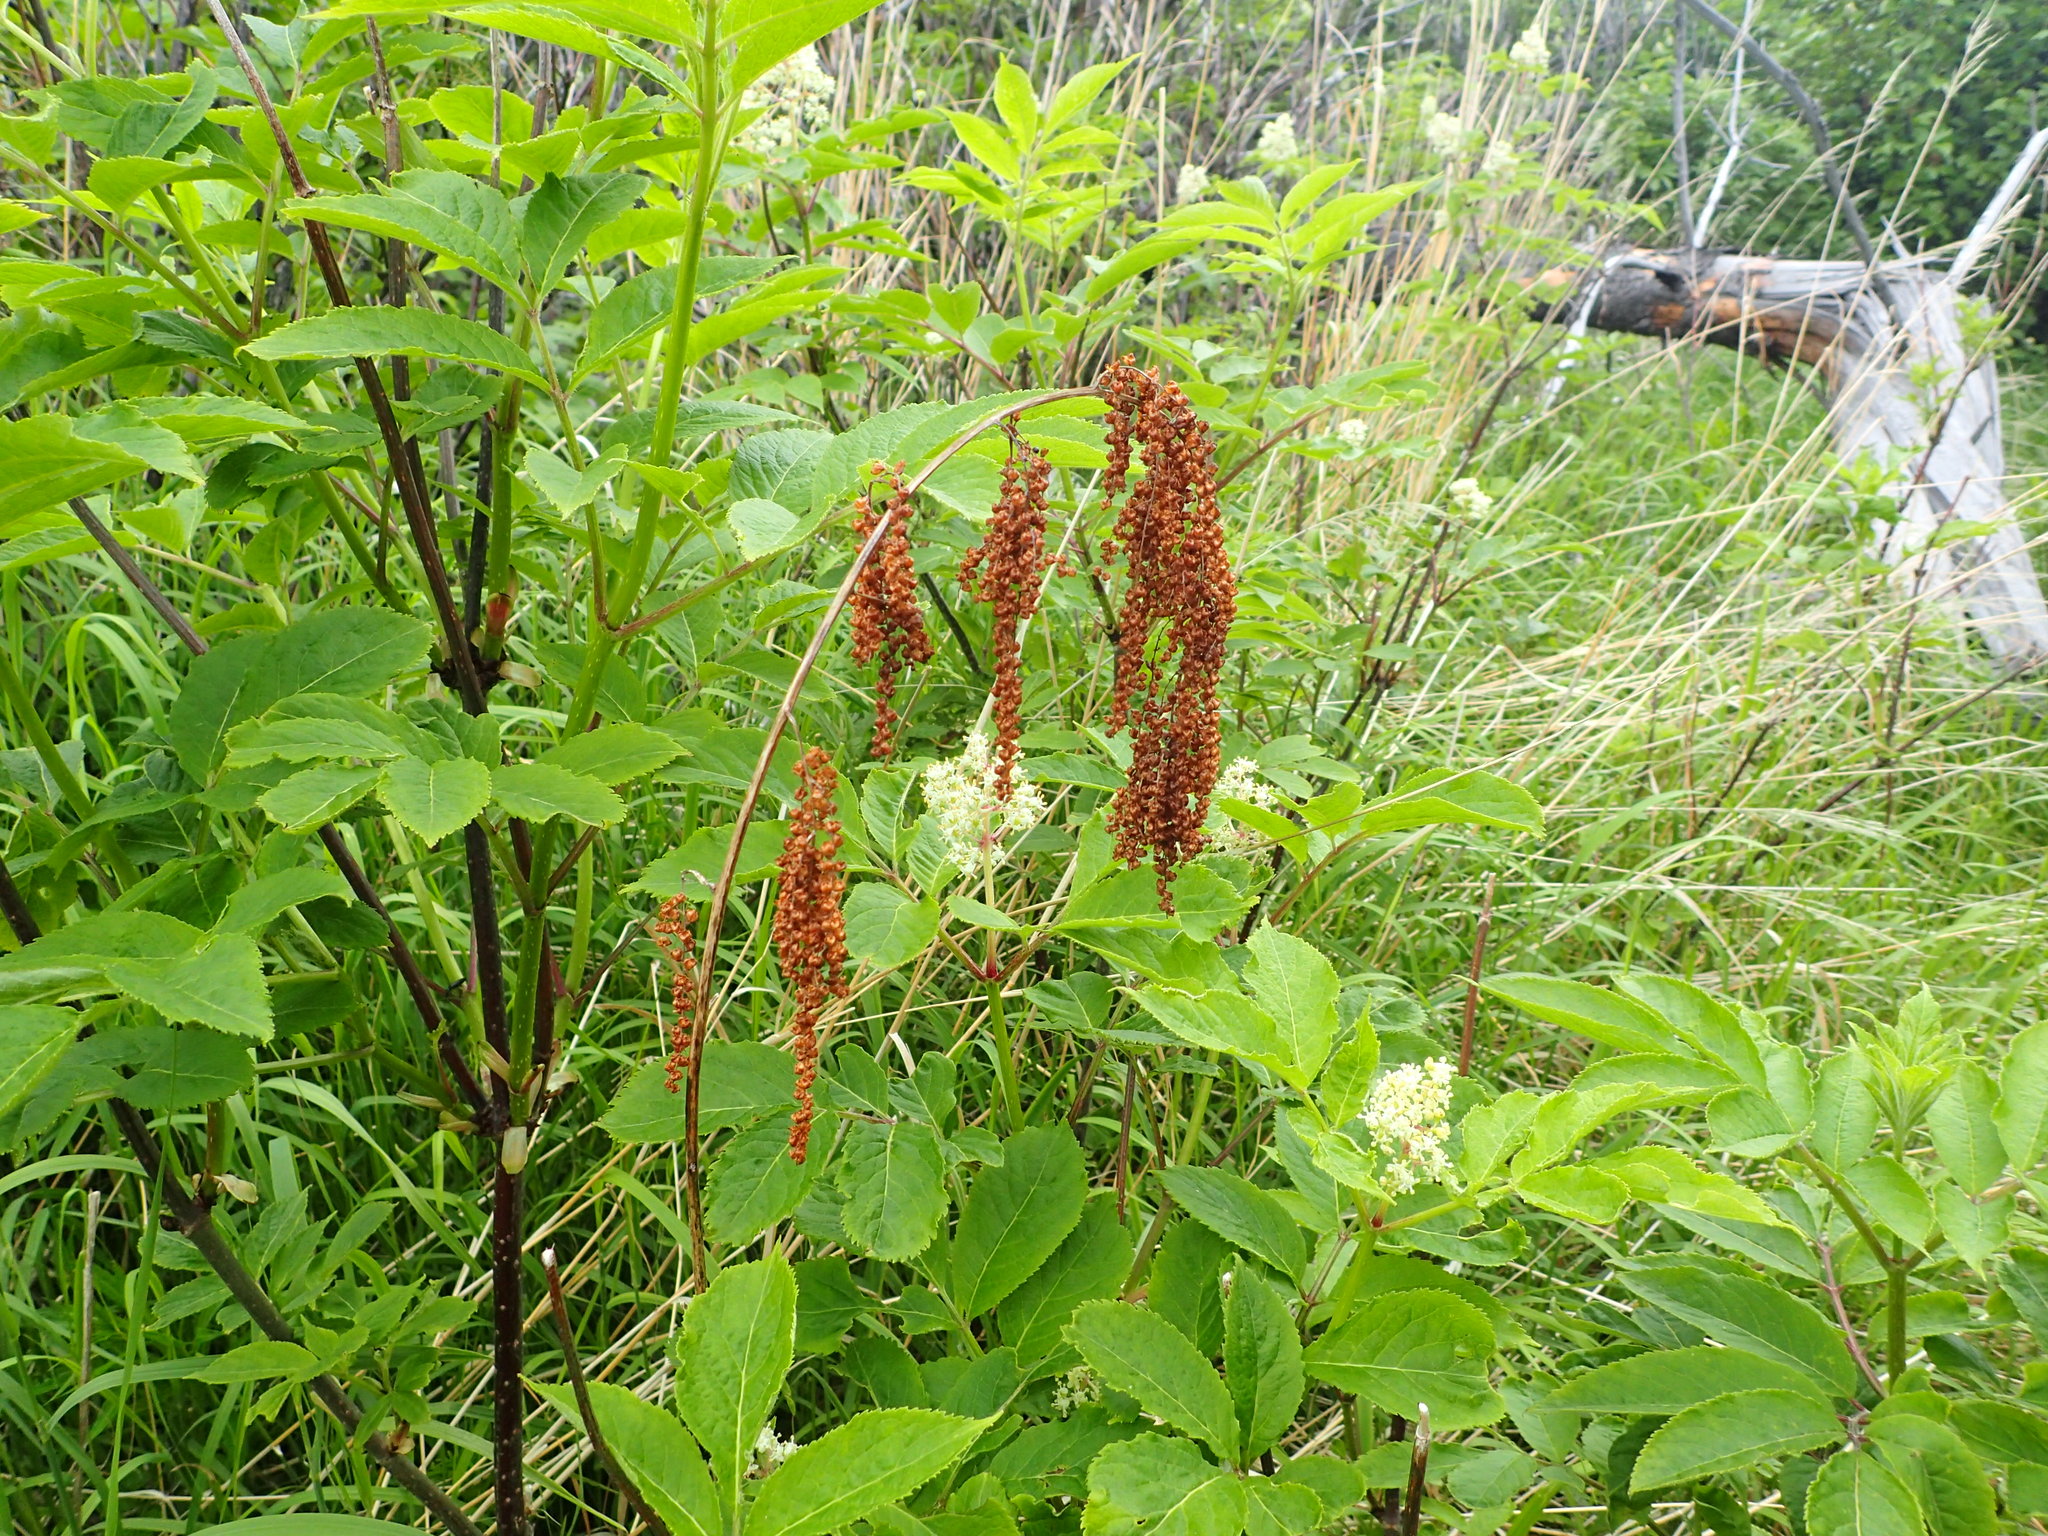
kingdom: Plantae
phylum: Tracheophyta
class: Magnoliopsida
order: Rosales
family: Rosaceae
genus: Aruncus
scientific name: Aruncus dioicus
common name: Buck's-beard
